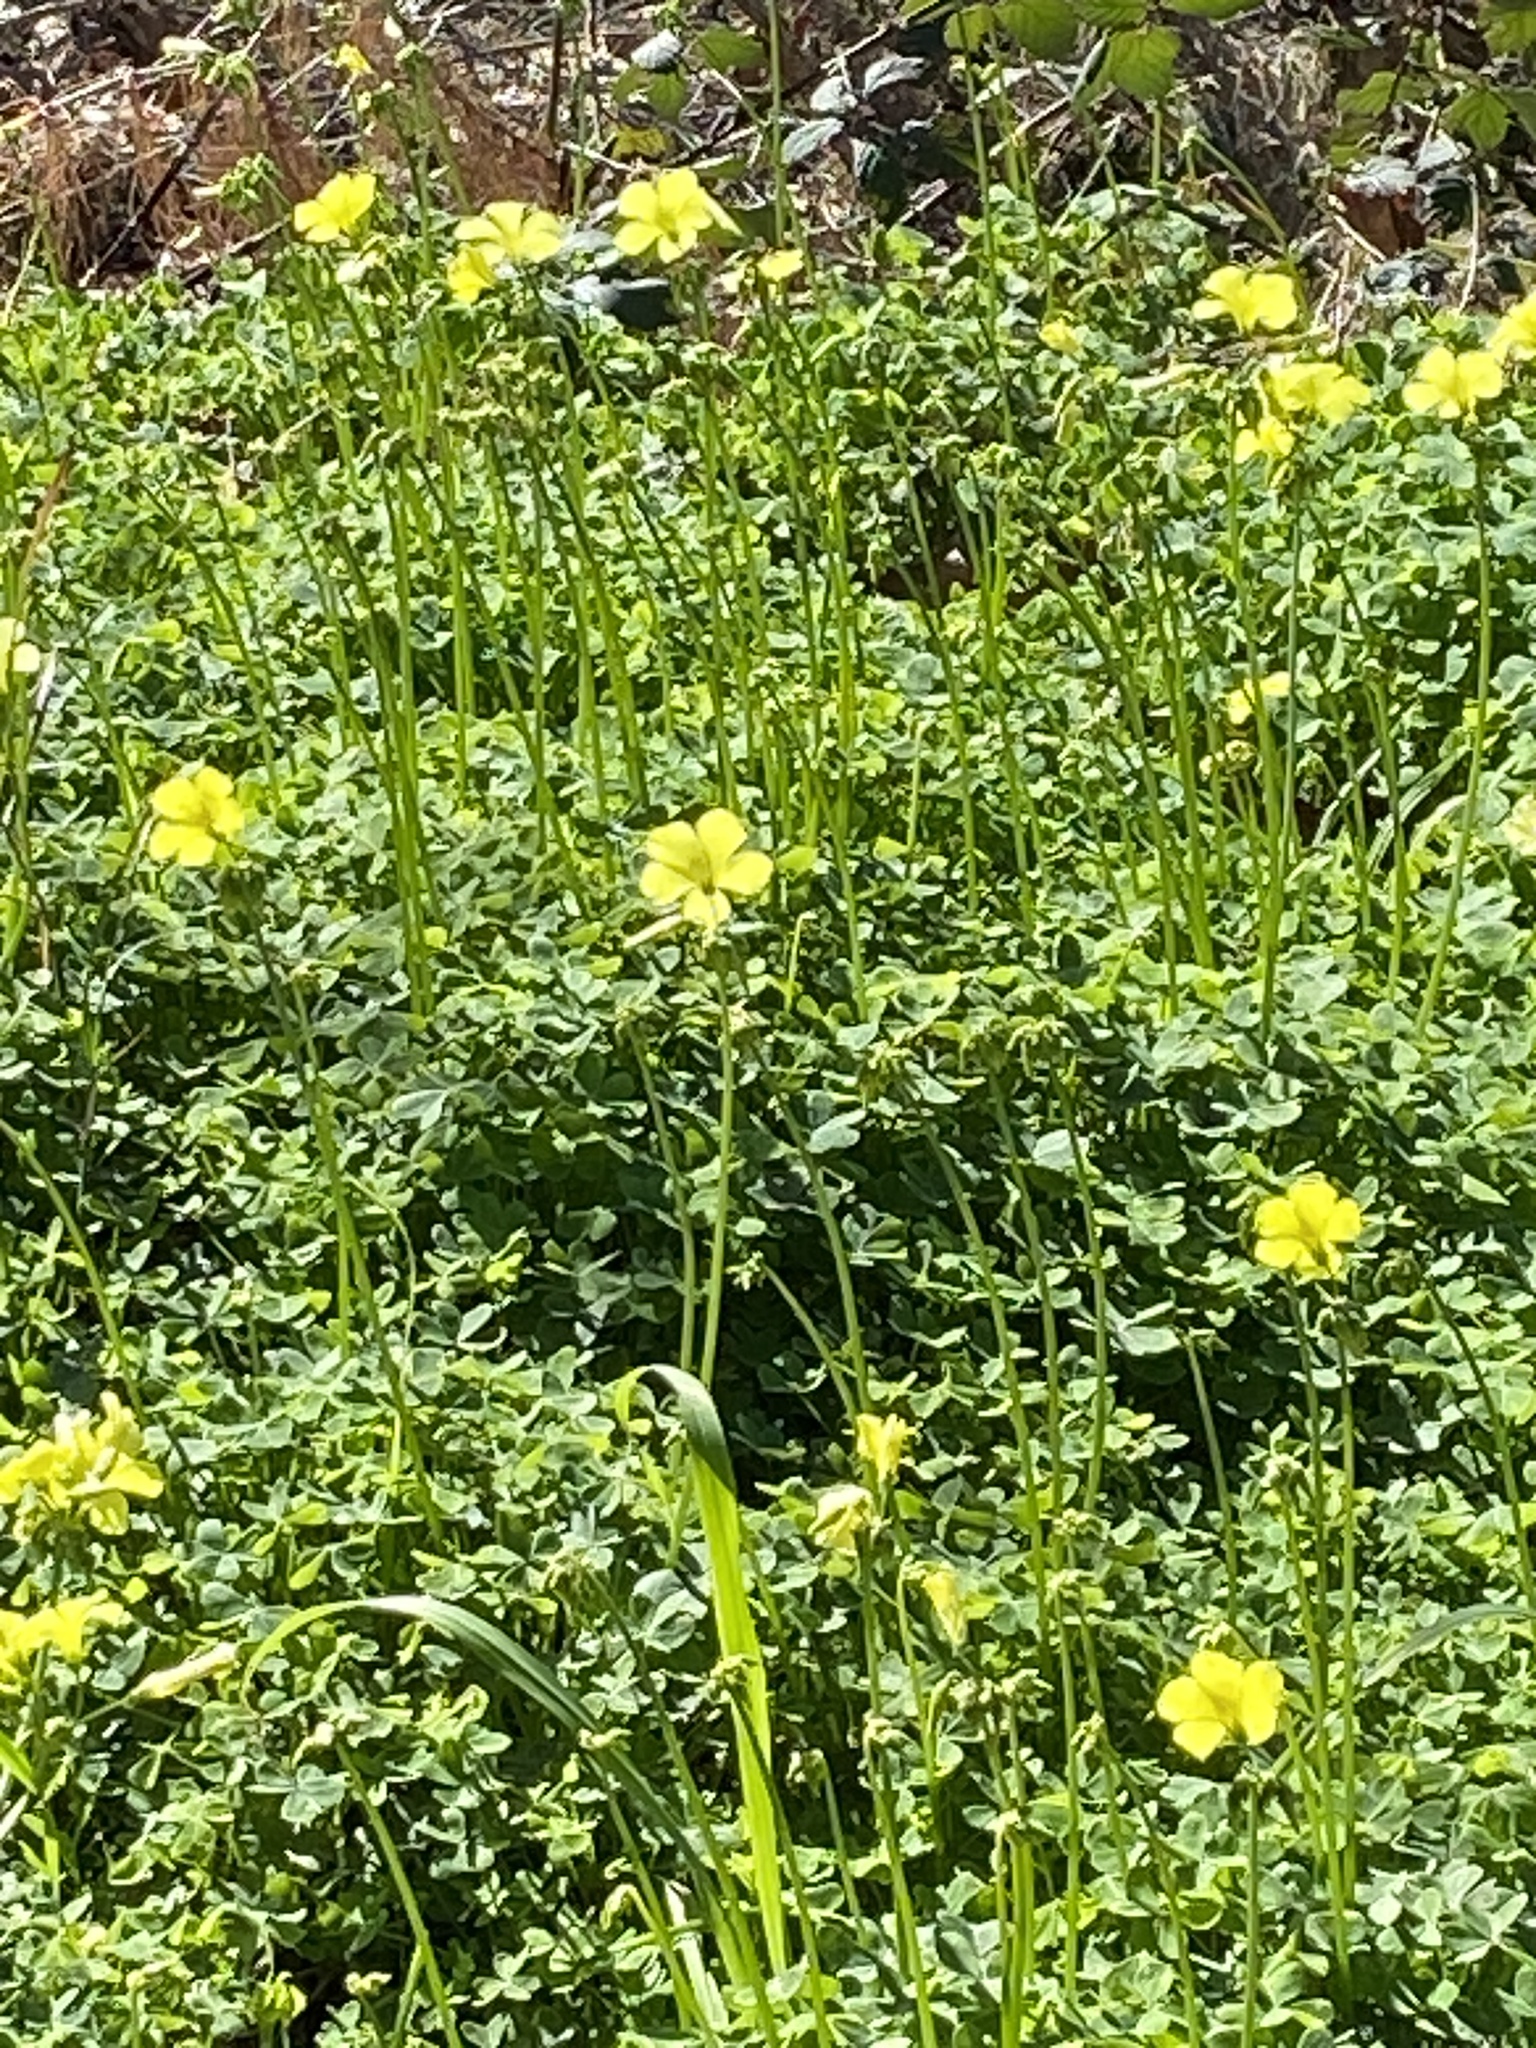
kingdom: Plantae
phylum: Tracheophyta
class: Magnoliopsida
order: Oxalidales
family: Oxalidaceae
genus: Oxalis
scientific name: Oxalis pes-caprae
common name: Bermuda-buttercup
